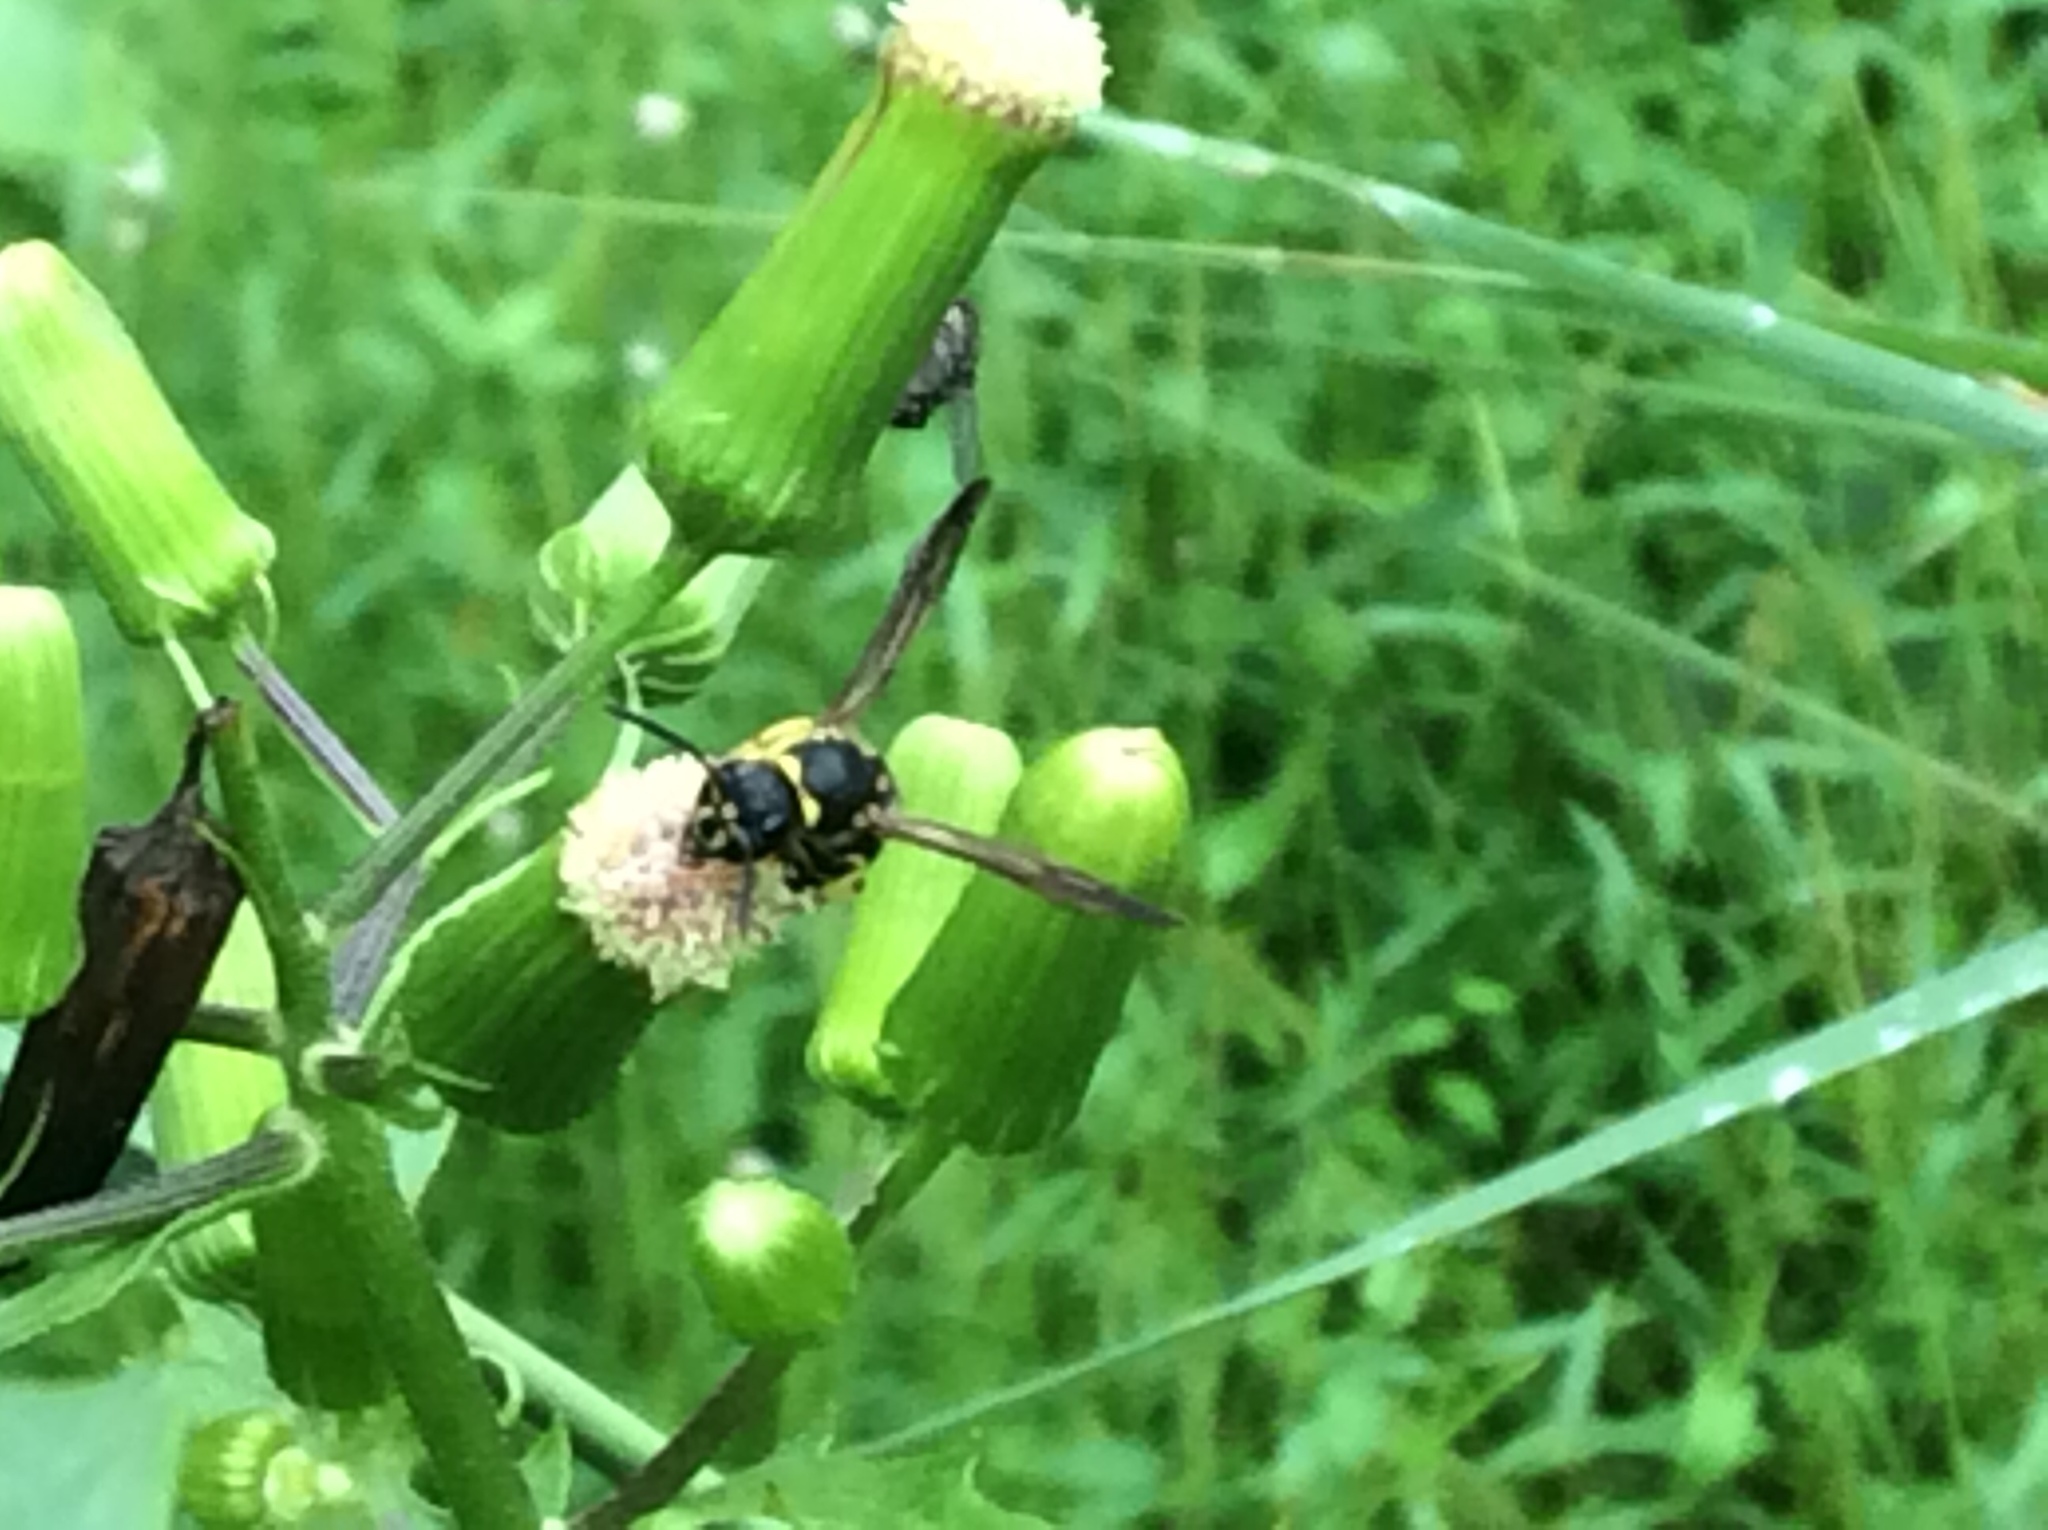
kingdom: Animalia
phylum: Arthropoda
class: Insecta
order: Hymenoptera
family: Vespidae
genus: Ancistrocerus
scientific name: Ancistrocerus
